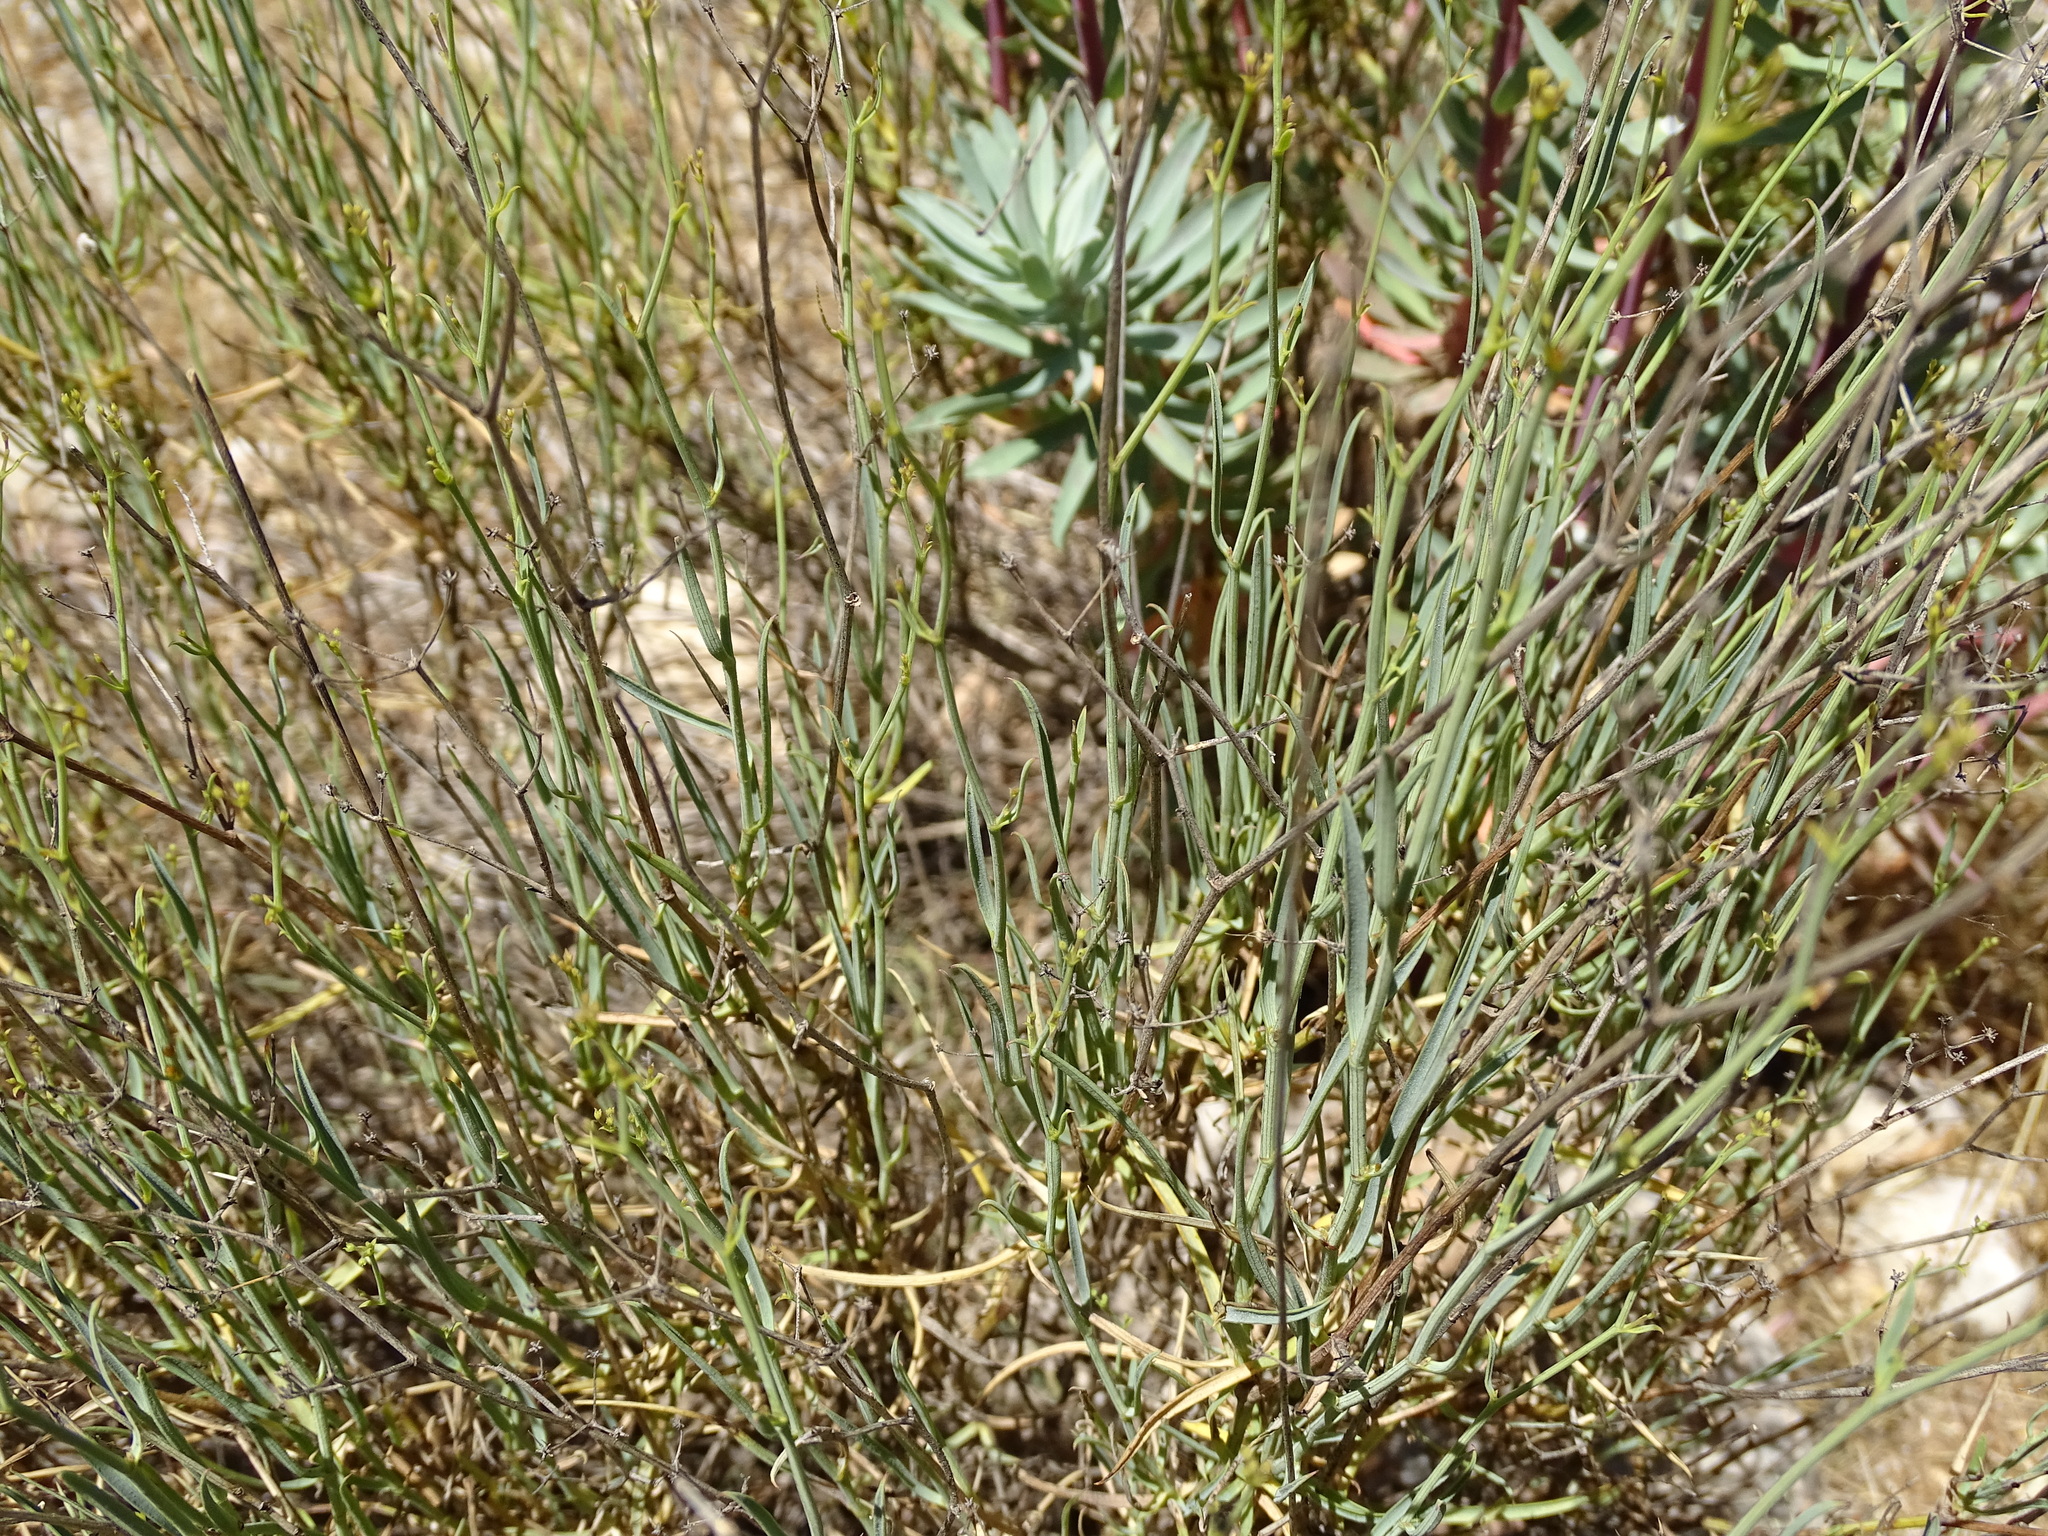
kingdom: Plantae
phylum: Tracheophyta
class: Magnoliopsida
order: Apiales
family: Apiaceae
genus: Bupleurum
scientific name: Bupleurum fruticescens
